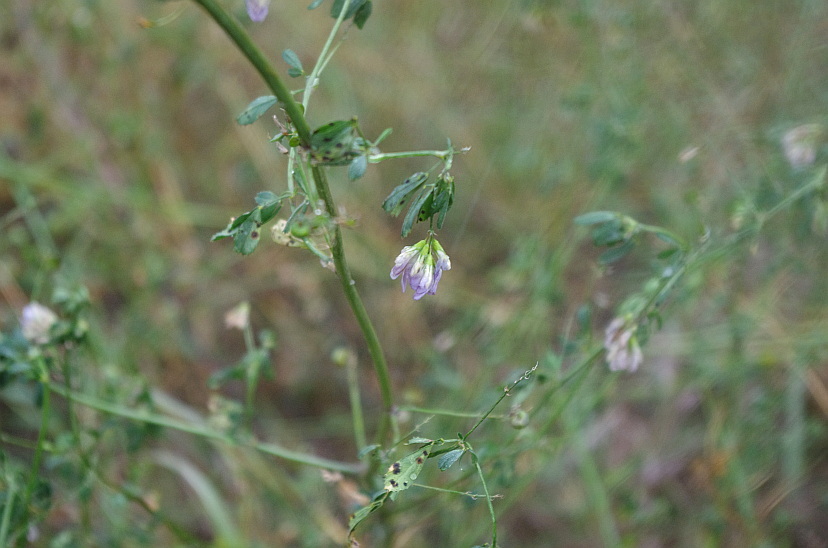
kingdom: Plantae
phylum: Tracheophyta
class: Magnoliopsida
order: Fabales
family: Fabaceae
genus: Medicago
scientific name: Medicago sativa
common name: Alfalfa
